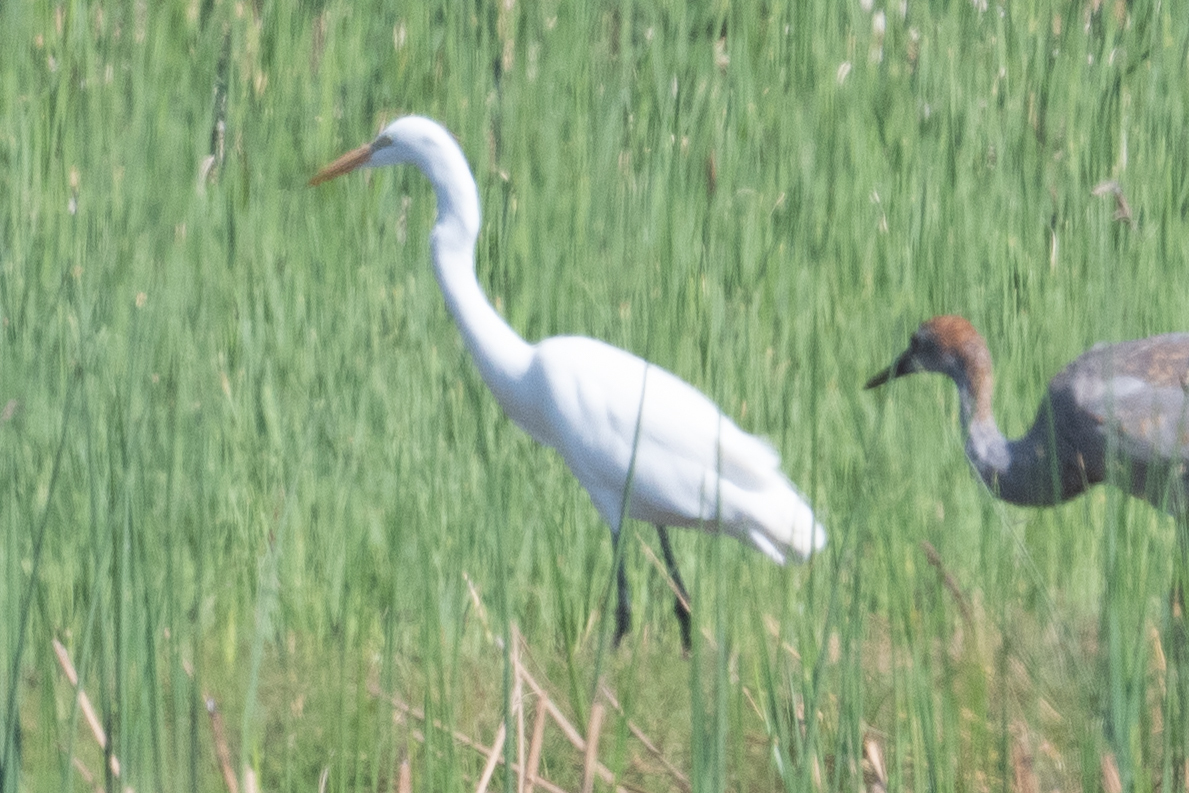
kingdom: Animalia
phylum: Chordata
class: Aves
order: Pelecaniformes
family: Ardeidae
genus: Ardea
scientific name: Ardea alba
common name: Great egret
